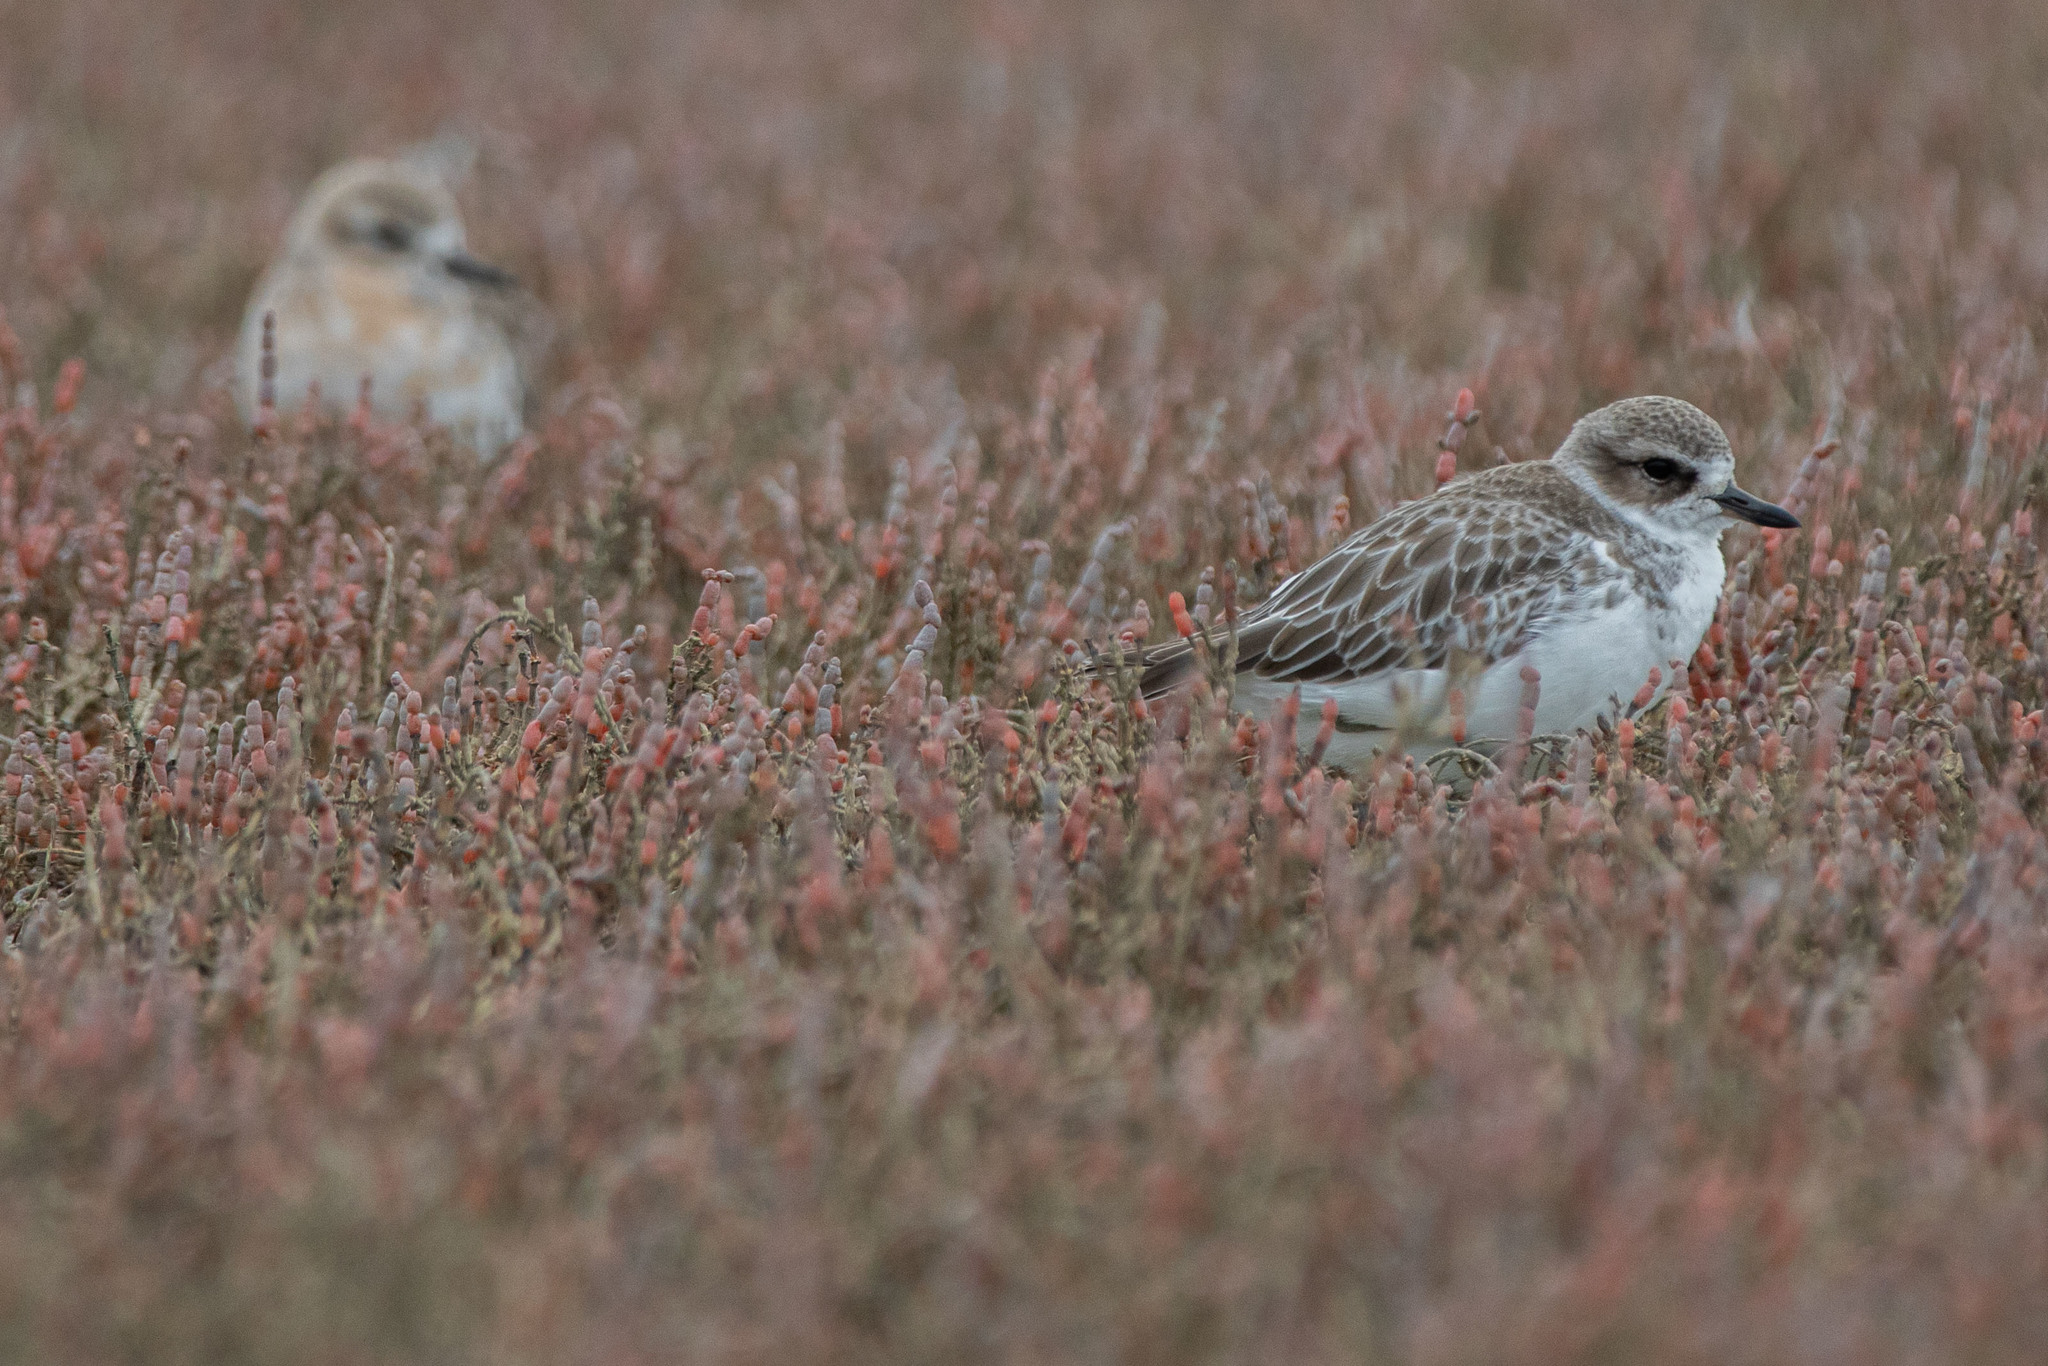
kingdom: Plantae
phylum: Tracheophyta
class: Magnoliopsida
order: Caryophyllales
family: Amaranthaceae
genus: Salicornia
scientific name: Salicornia quinqueflora
